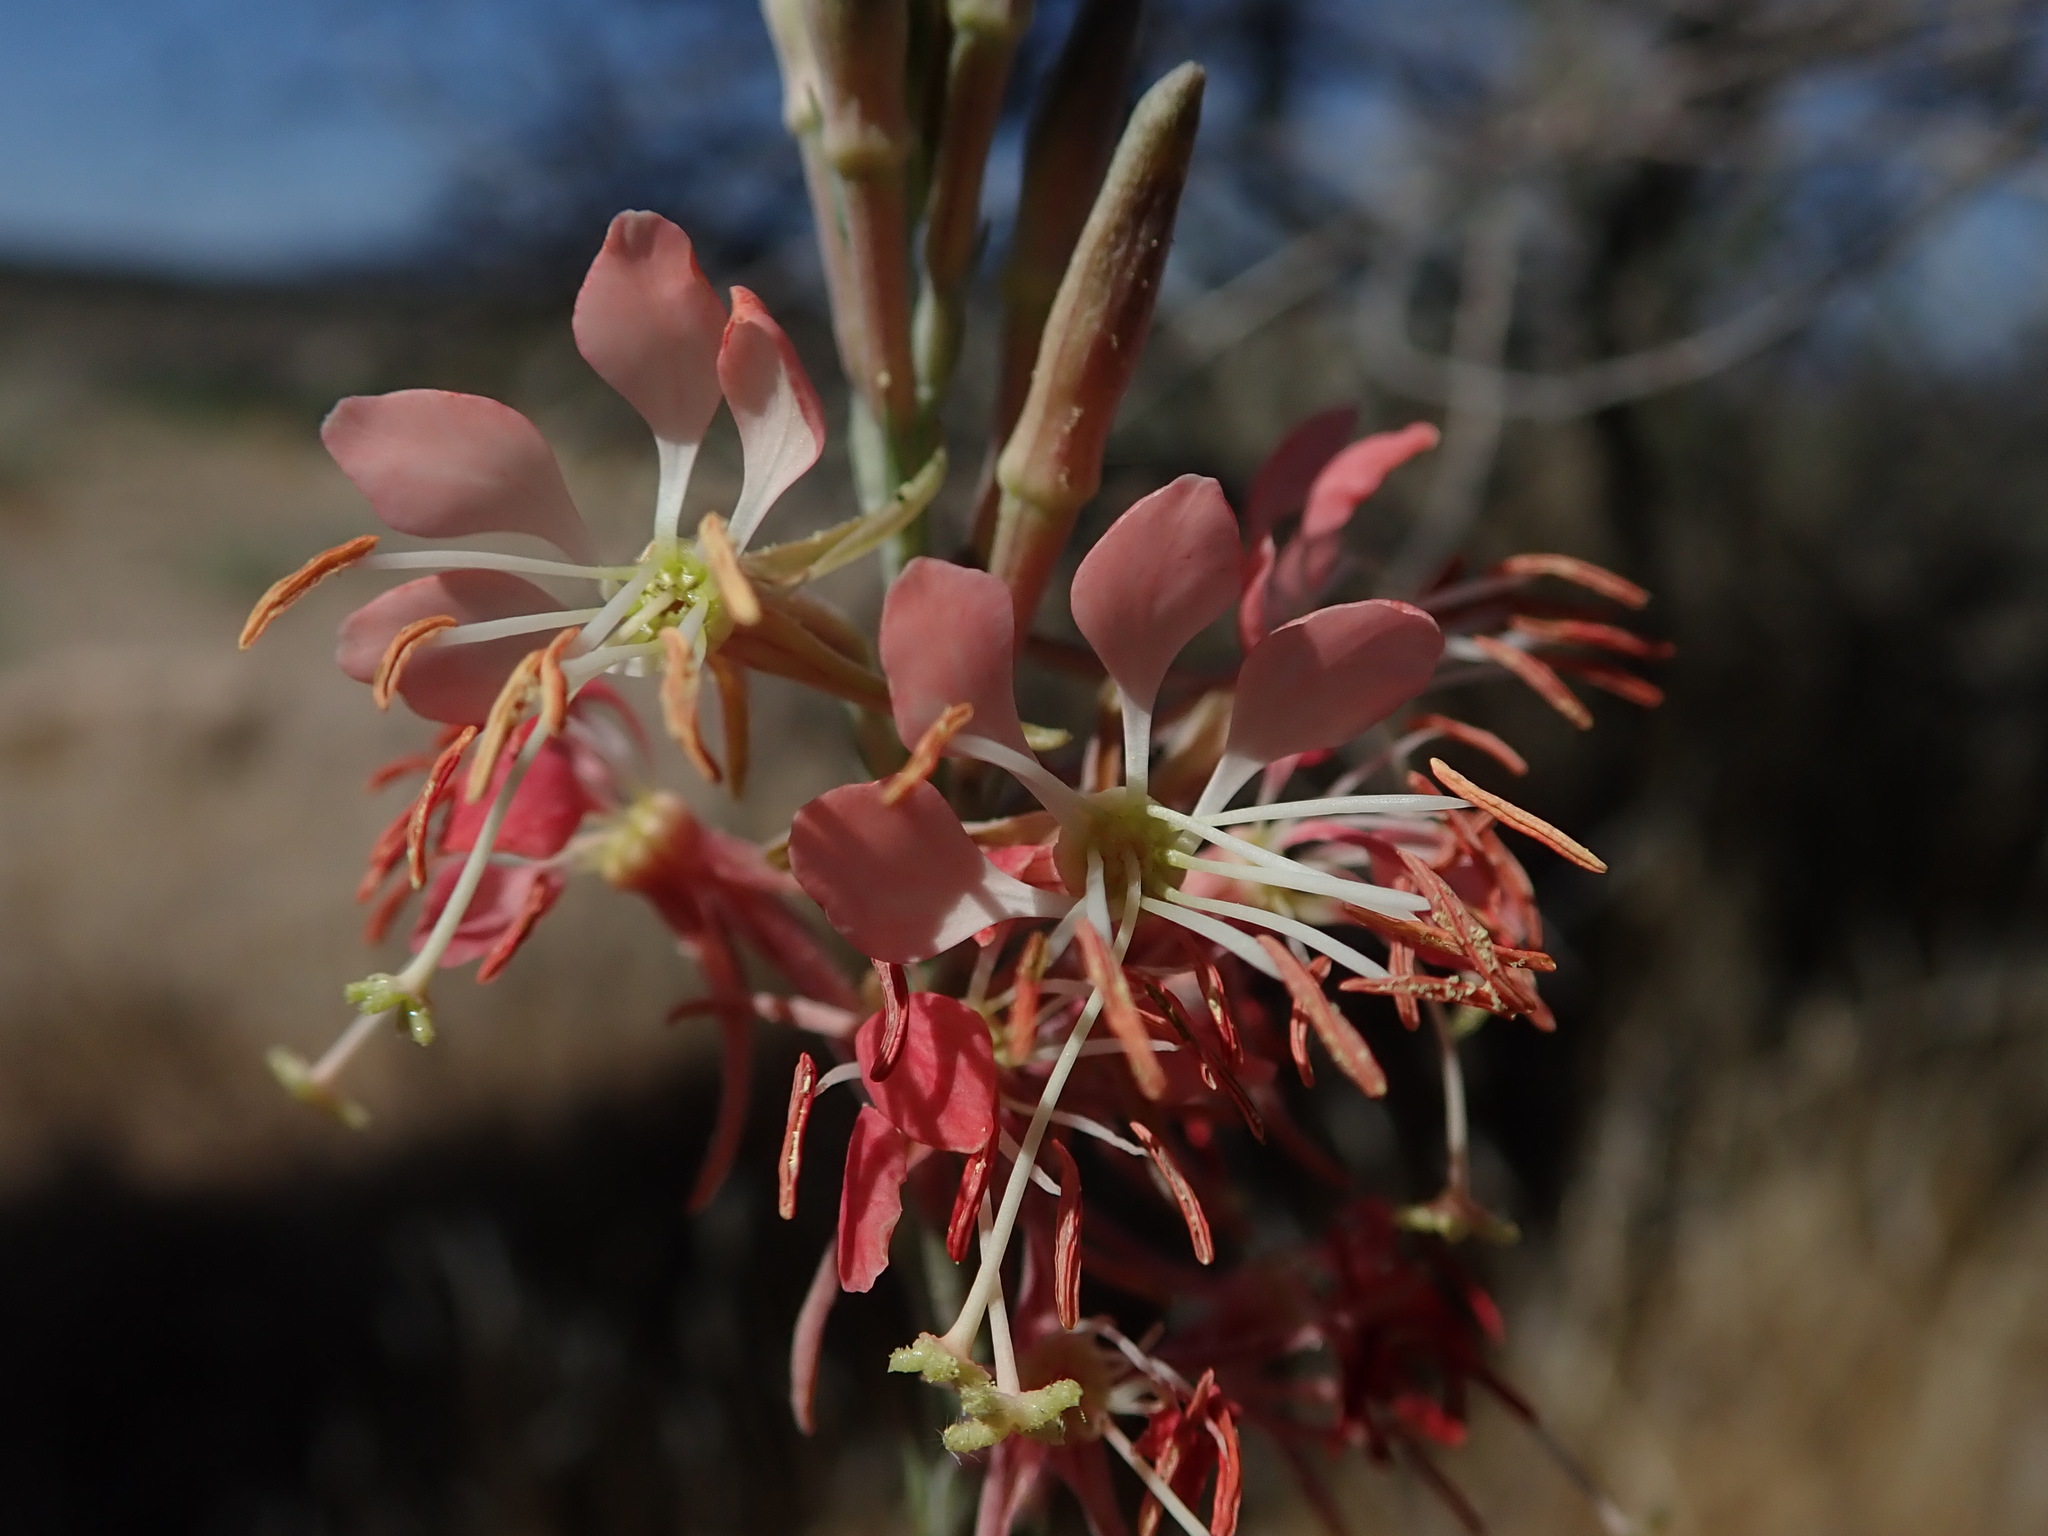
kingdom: Plantae
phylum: Tracheophyta
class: Magnoliopsida
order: Myrtales
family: Onagraceae
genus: Oenothera
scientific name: Oenothera suffrutescens
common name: Scarlet beeblossom
